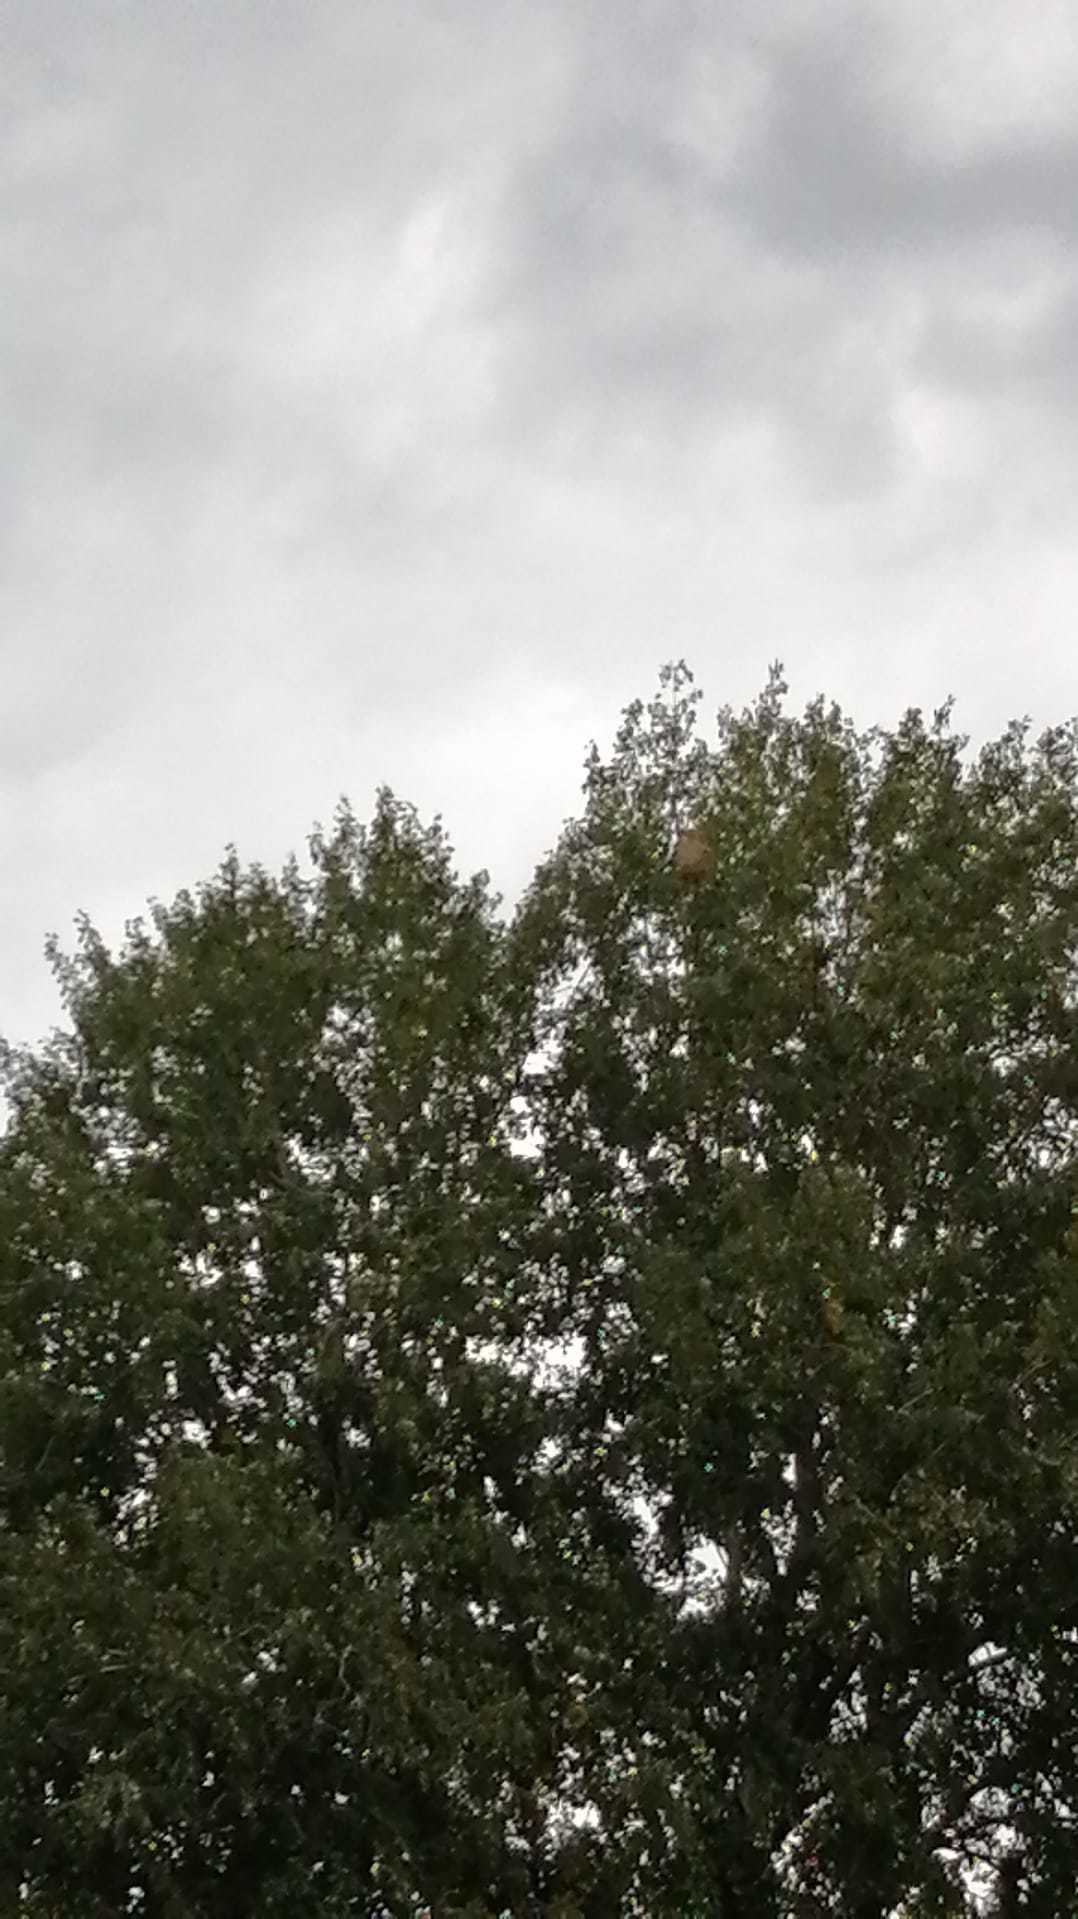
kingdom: Animalia
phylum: Arthropoda
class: Insecta
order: Hymenoptera
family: Vespidae
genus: Vespa
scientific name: Vespa velutina
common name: Asian hornet
